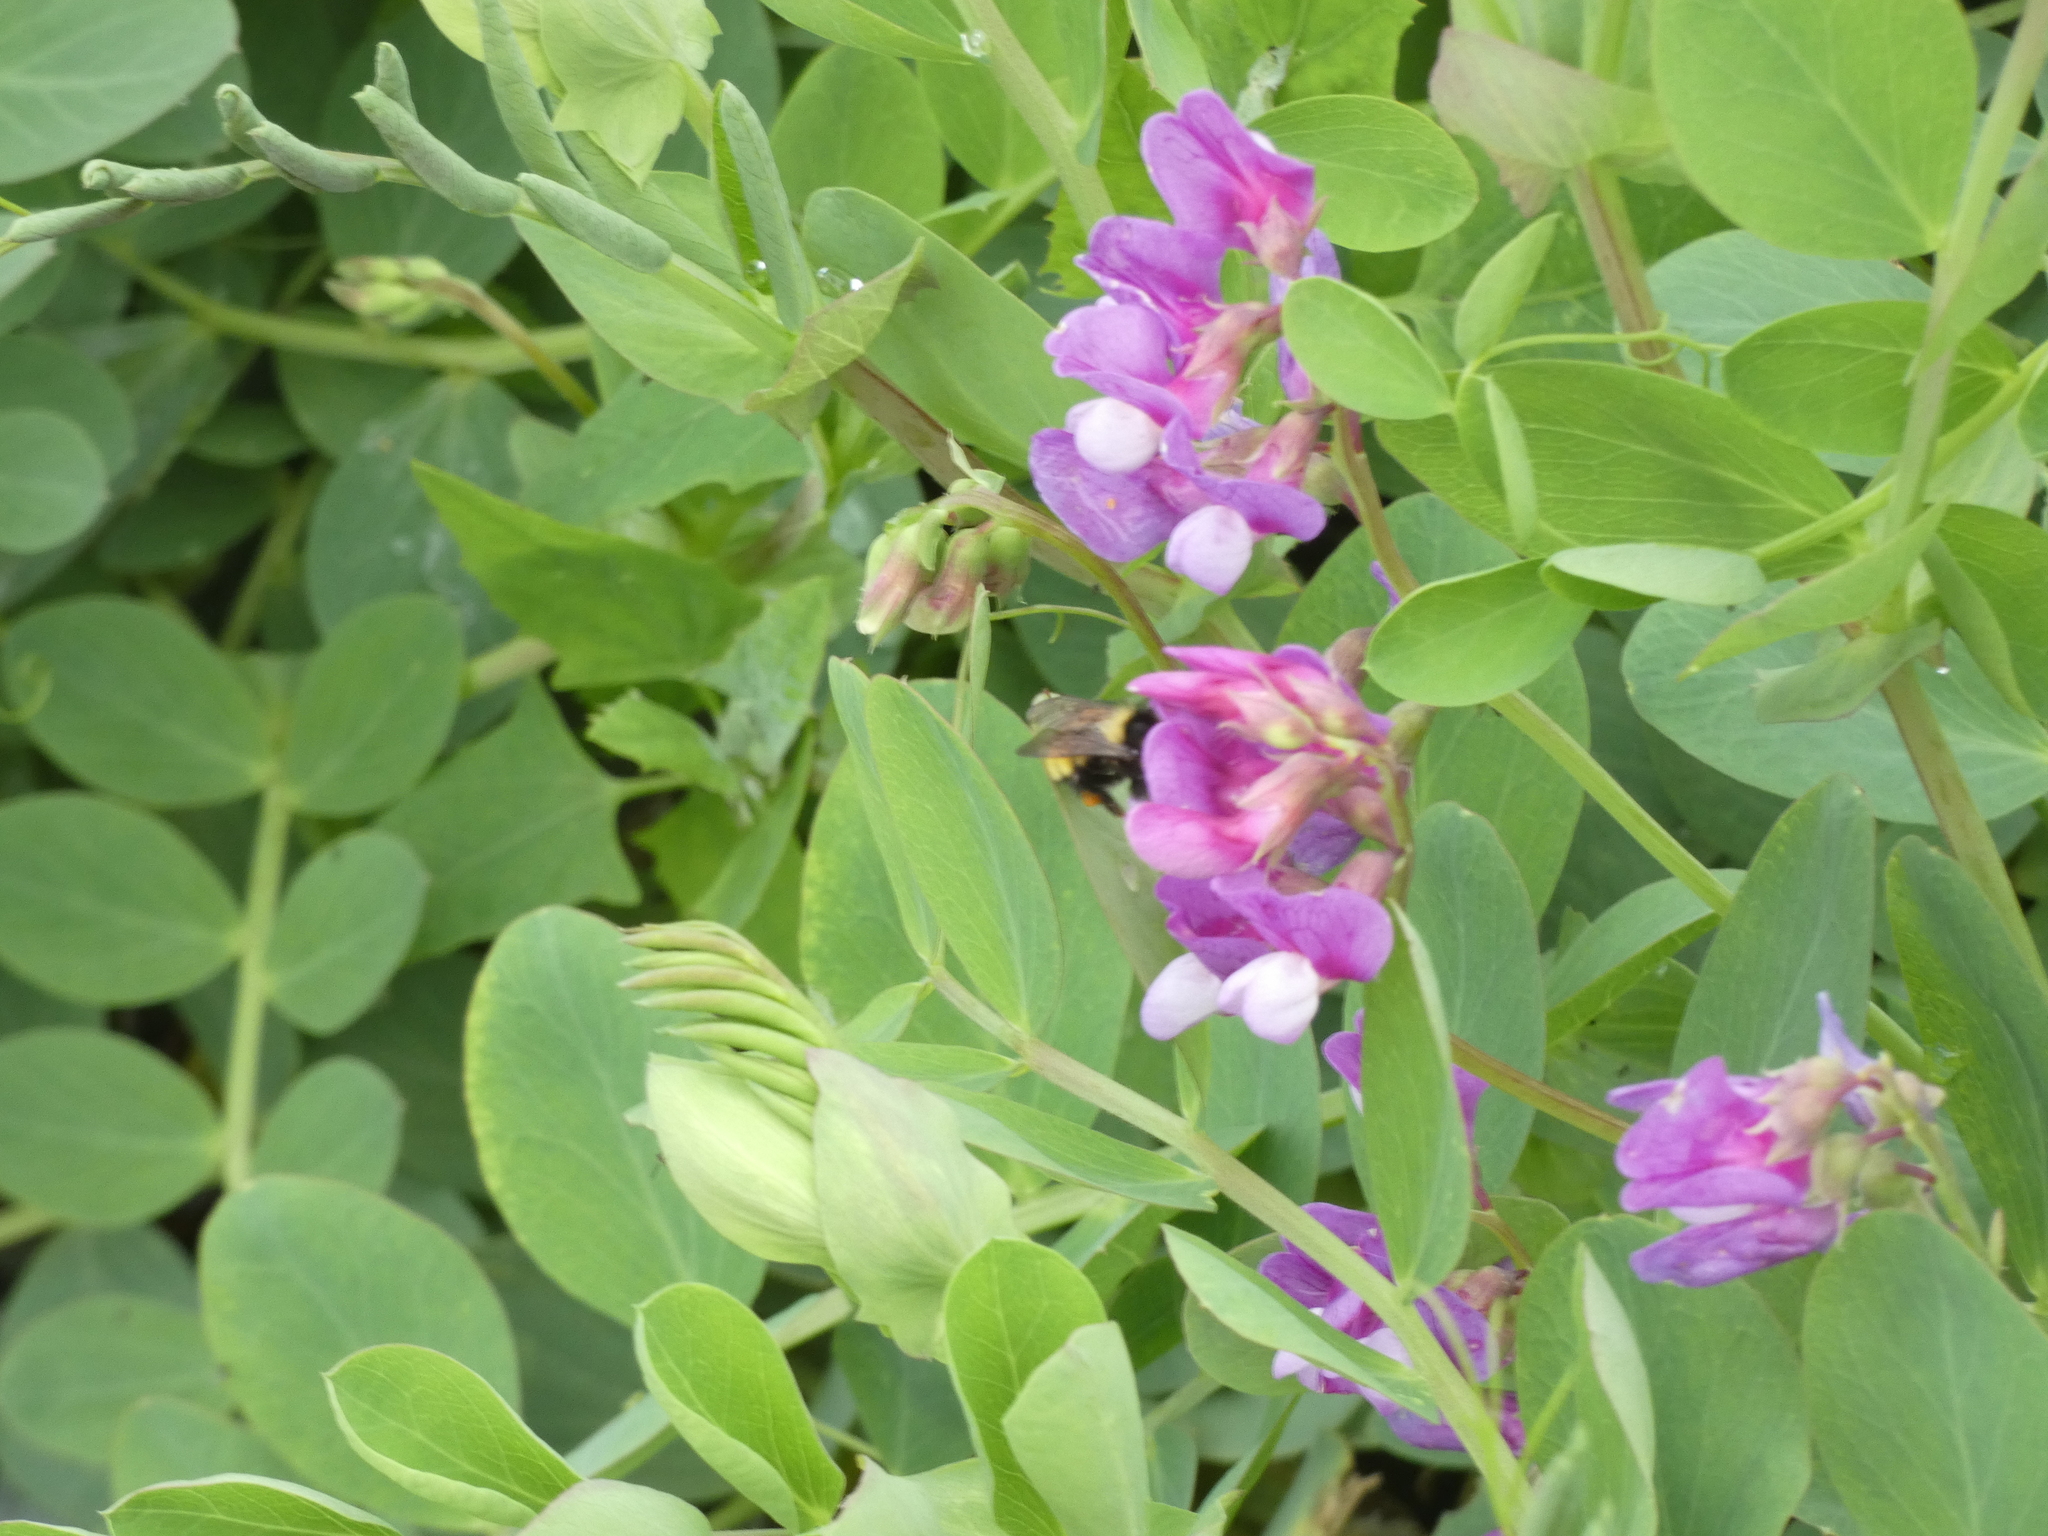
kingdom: Animalia
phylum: Arthropoda
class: Insecta
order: Hymenoptera
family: Apidae
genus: Bombus
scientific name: Bombus borealis
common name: Northern amber bumble bee
